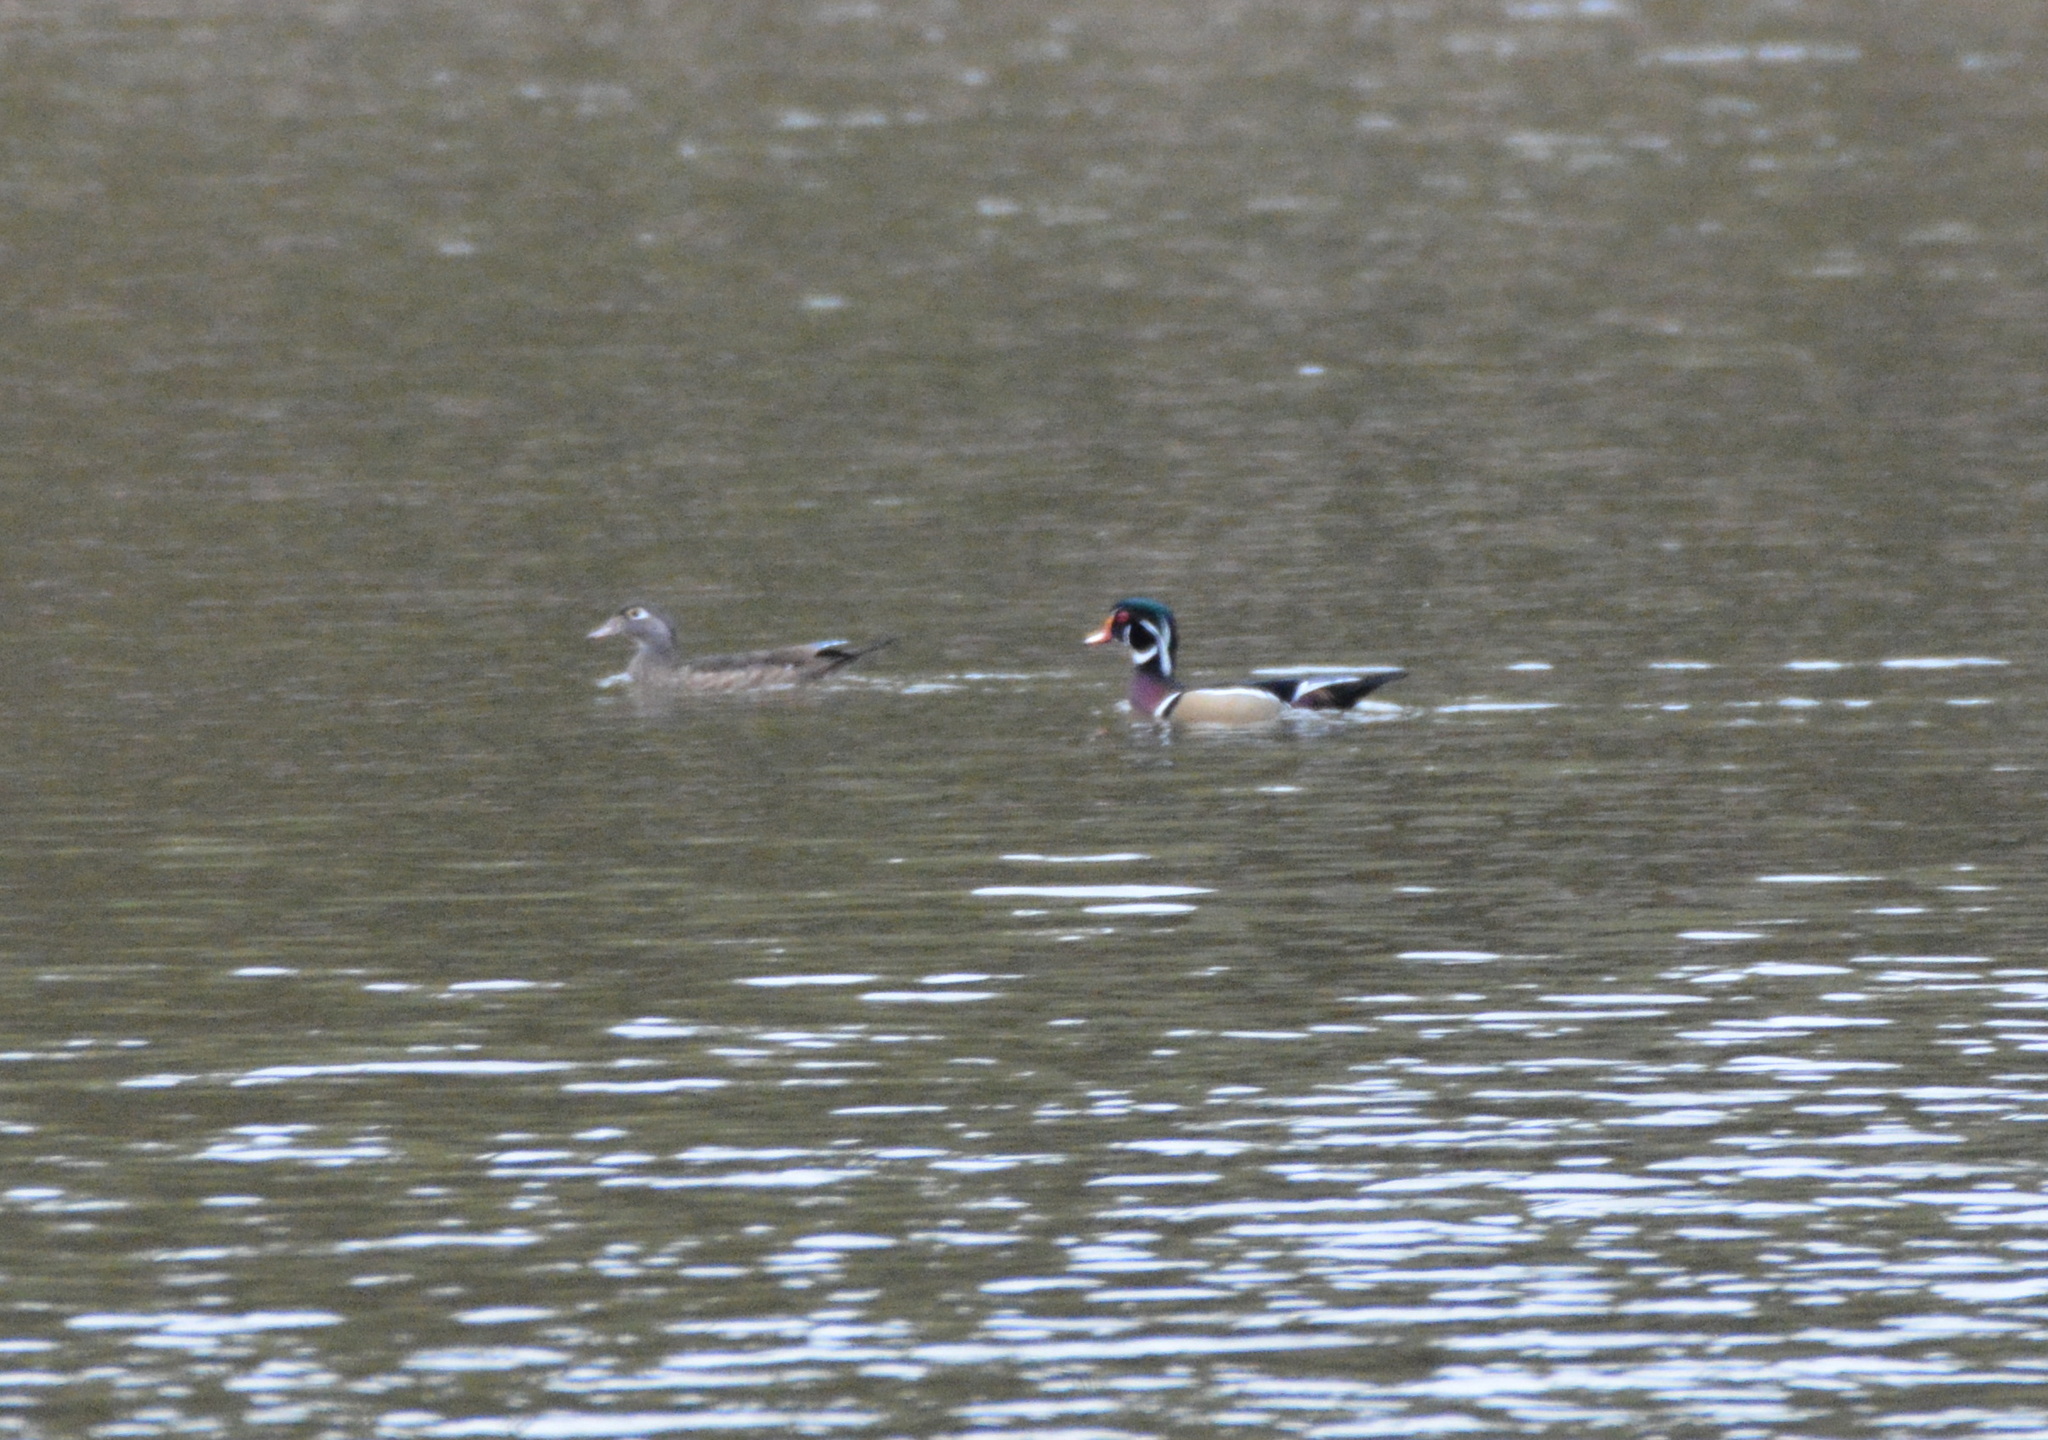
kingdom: Animalia
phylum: Chordata
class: Aves
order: Anseriformes
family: Anatidae
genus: Aix
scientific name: Aix sponsa
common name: Wood duck
